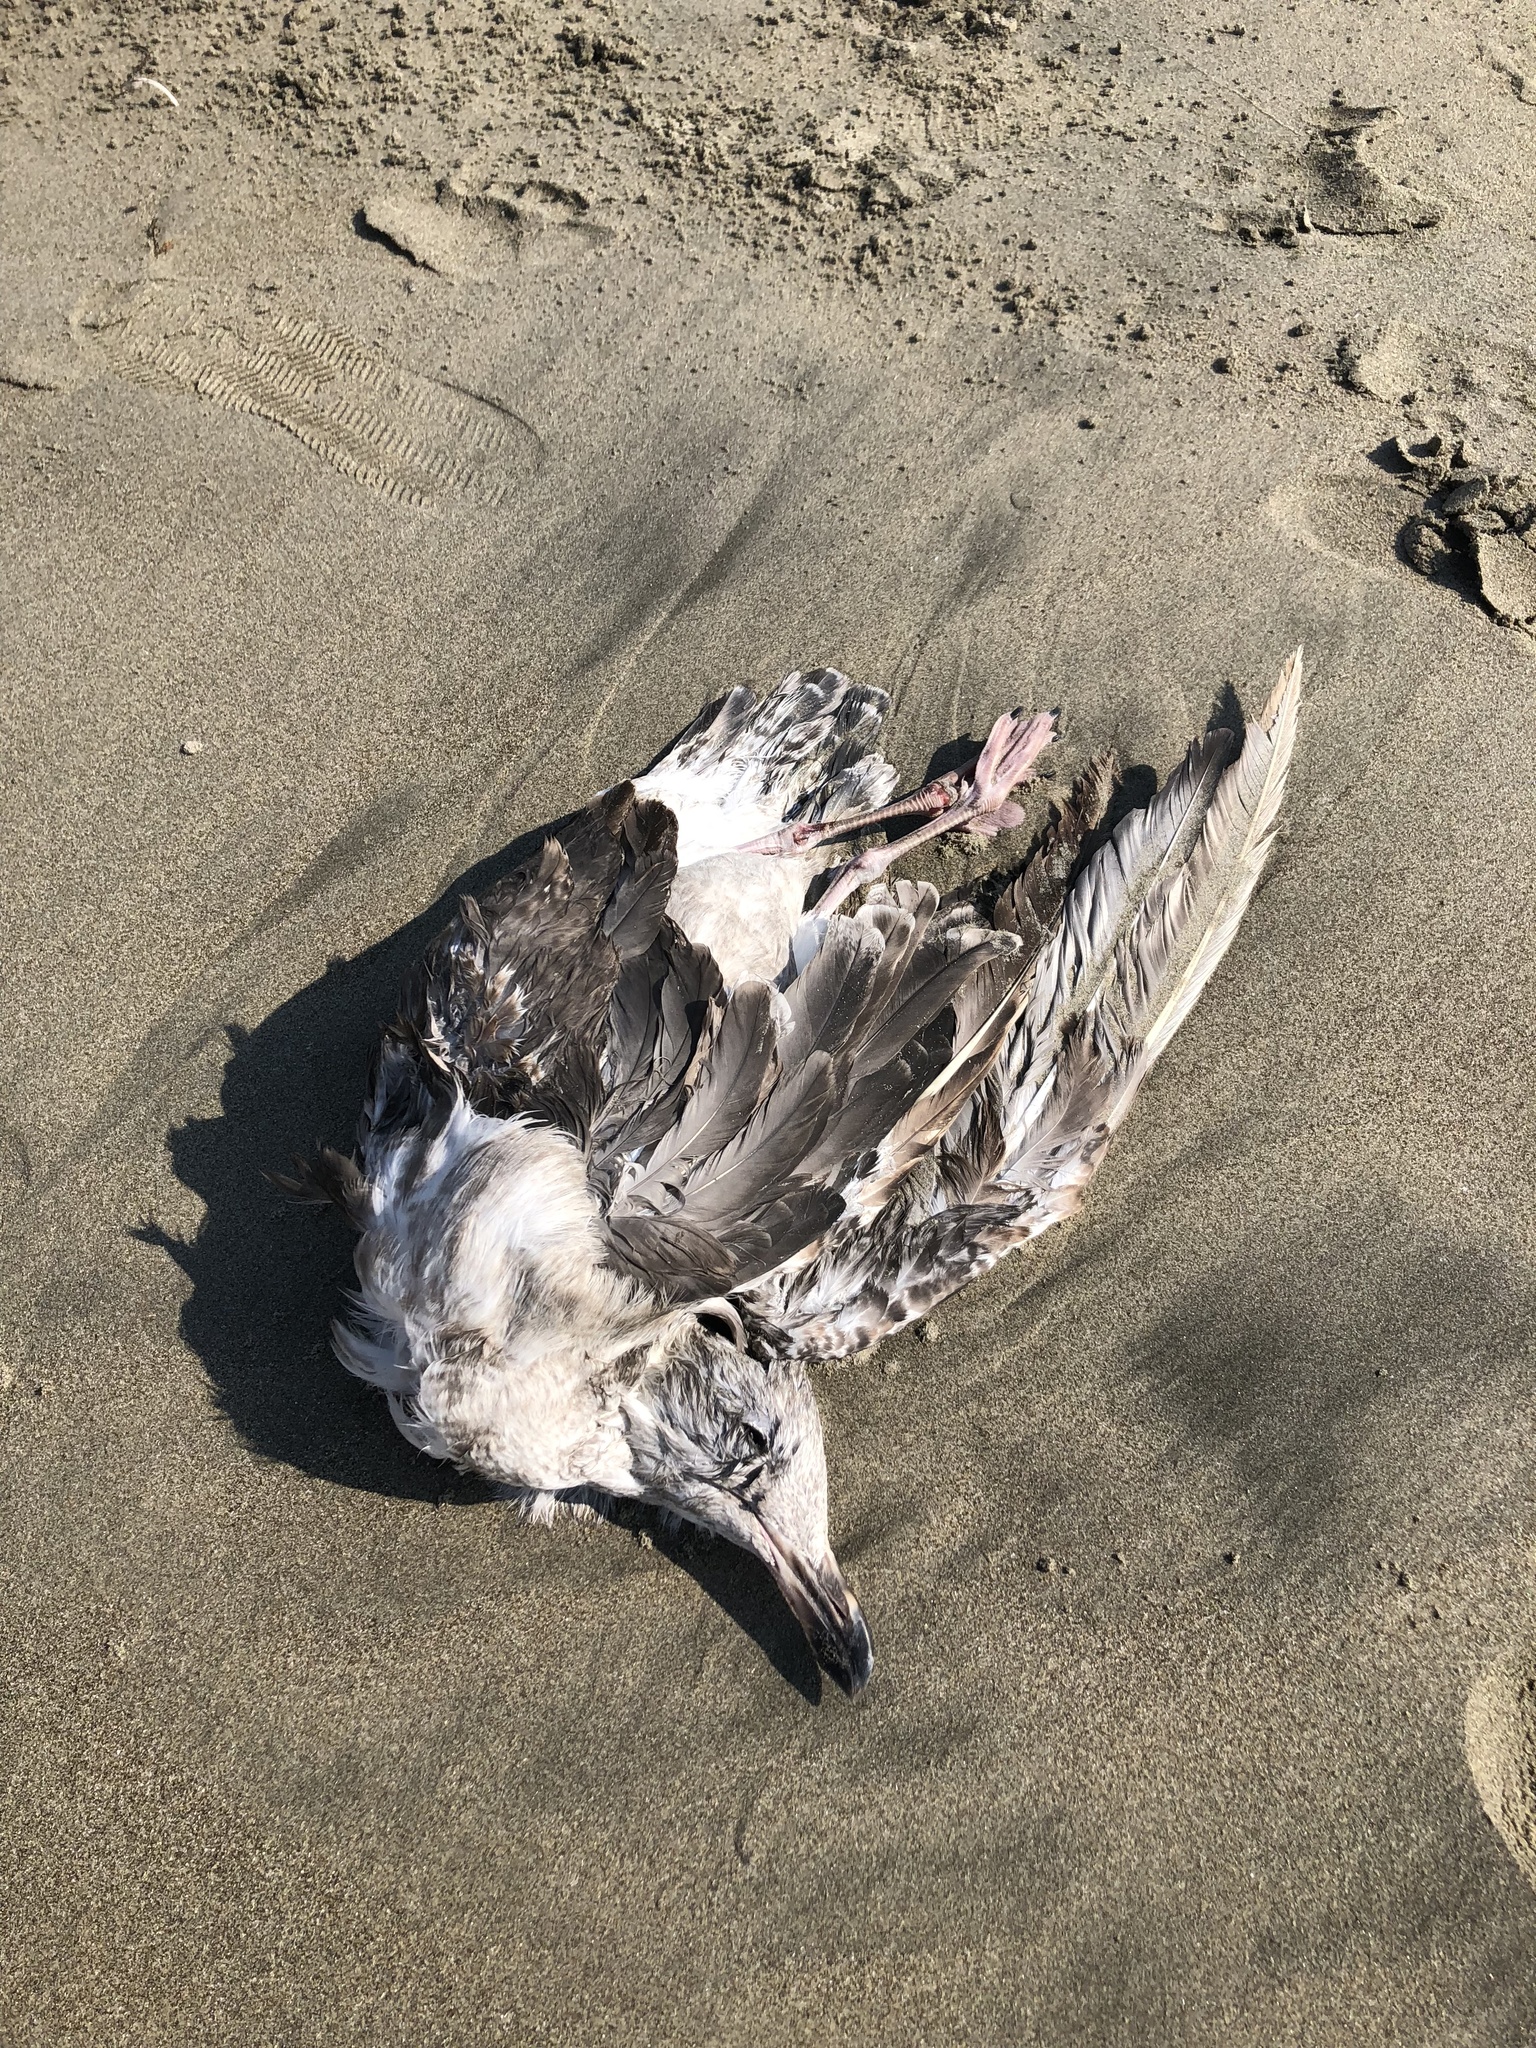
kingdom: Animalia
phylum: Chordata
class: Aves
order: Charadriiformes
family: Laridae
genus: Larus
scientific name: Larus occidentalis
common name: Western gull
